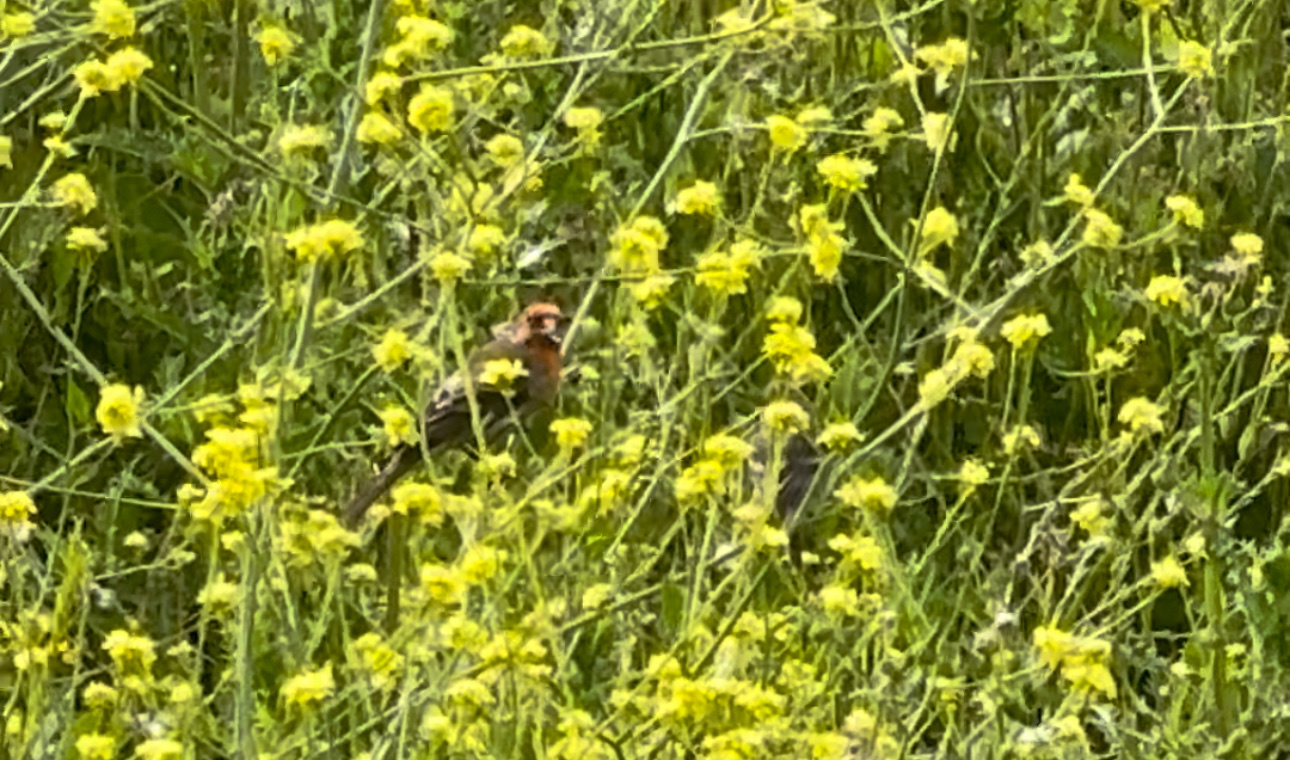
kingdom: Animalia
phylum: Chordata
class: Aves
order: Passeriformes
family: Fringillidae
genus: Haemorhous
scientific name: Haemorhous mexicanus
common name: House finch
